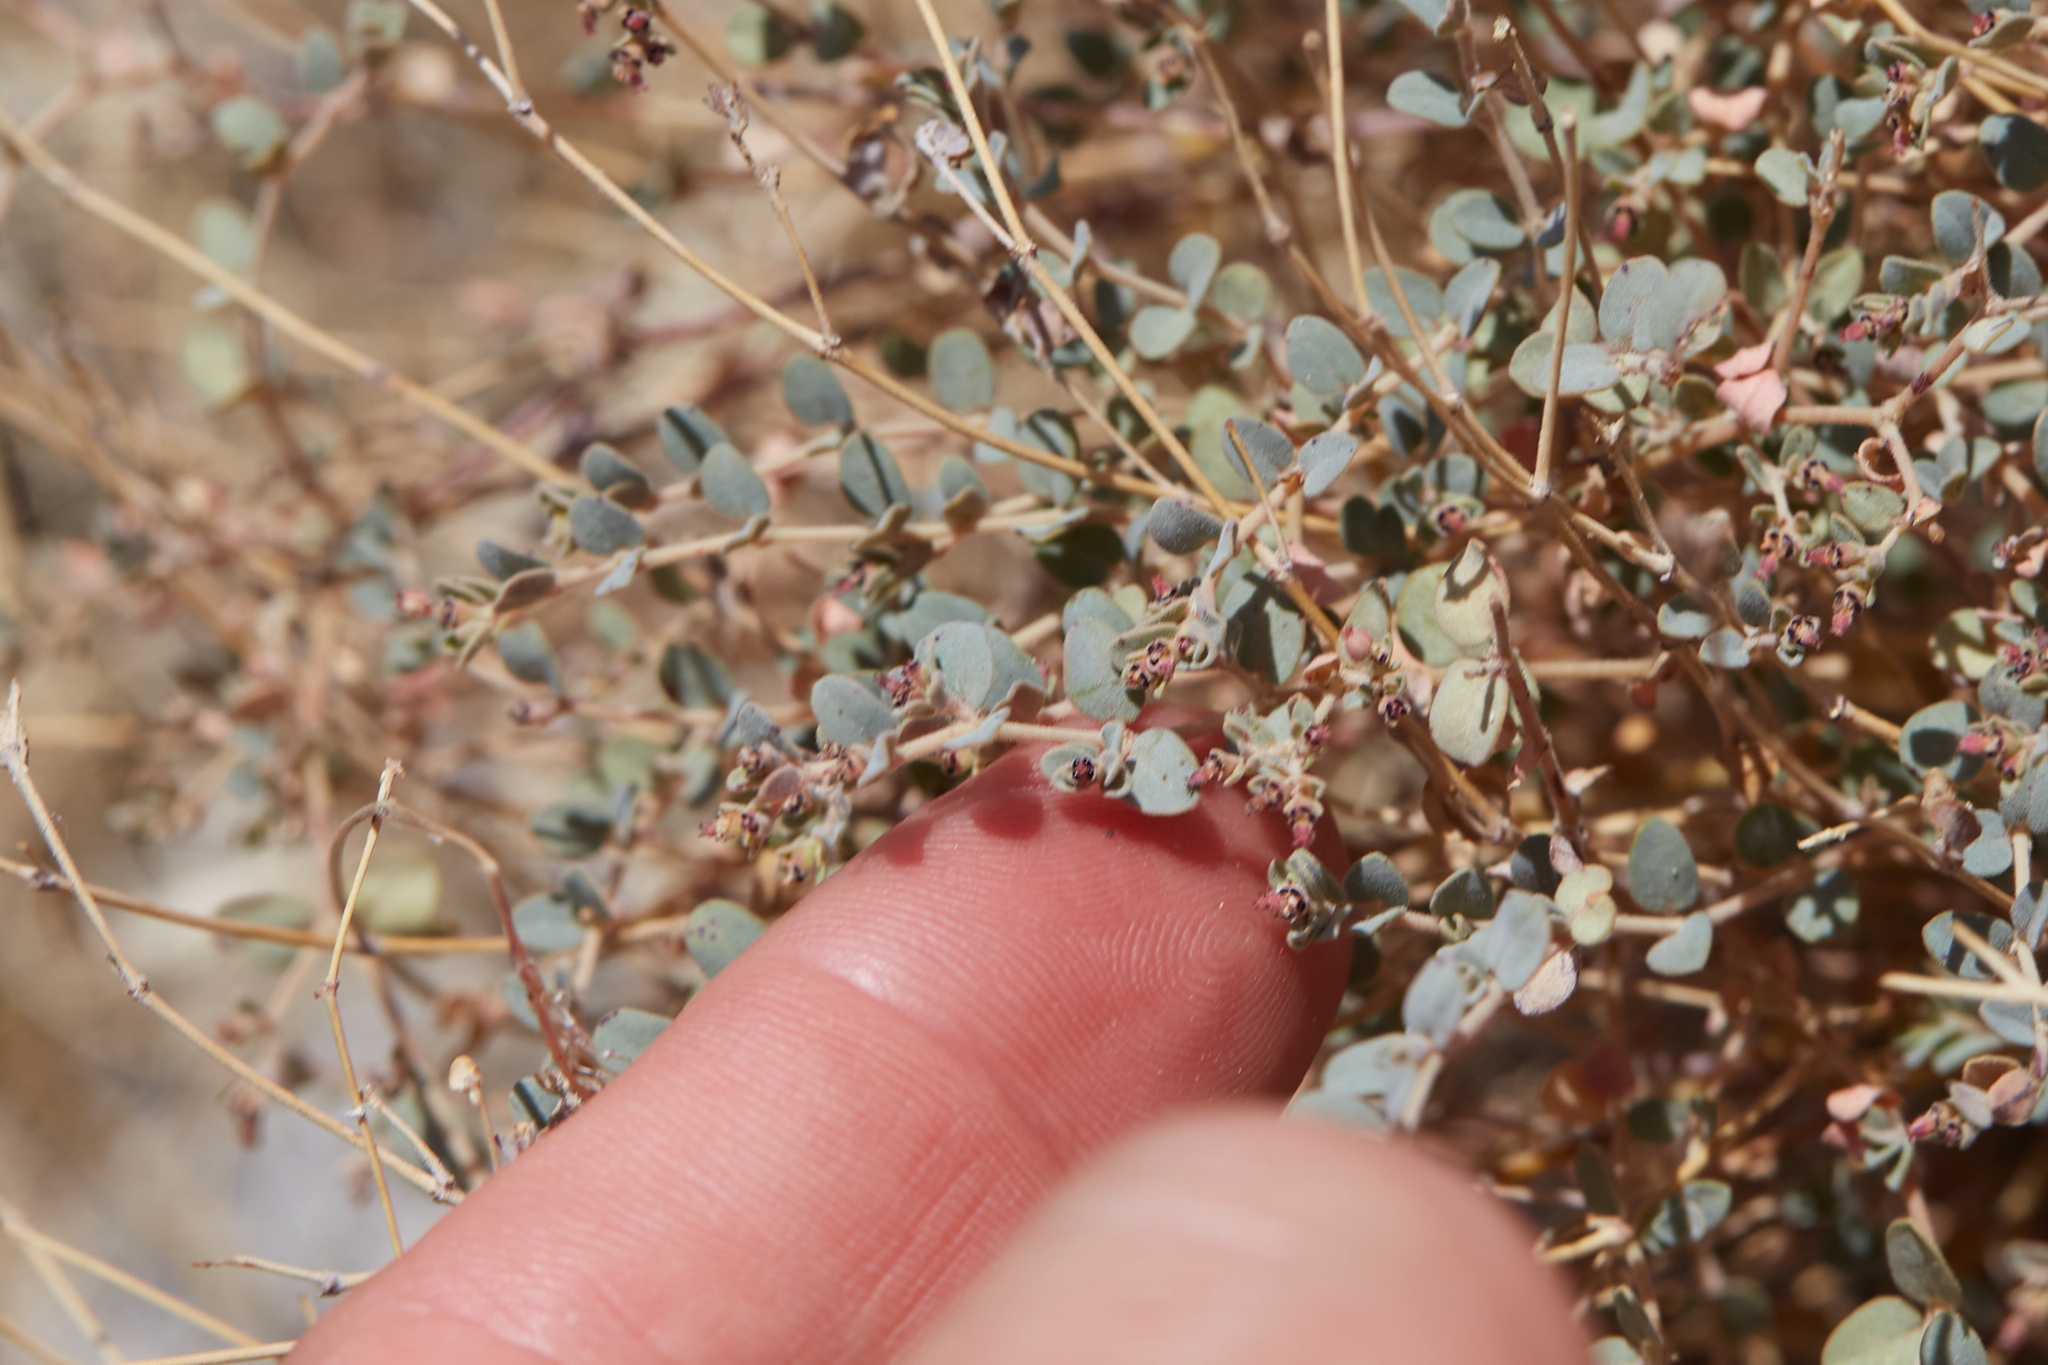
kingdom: Plantae
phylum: Tracheophyta
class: Magnoliopsida
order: Malpighiales
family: Euphorbiaceae
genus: Euphorbia
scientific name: Euphorbia polycarpa
